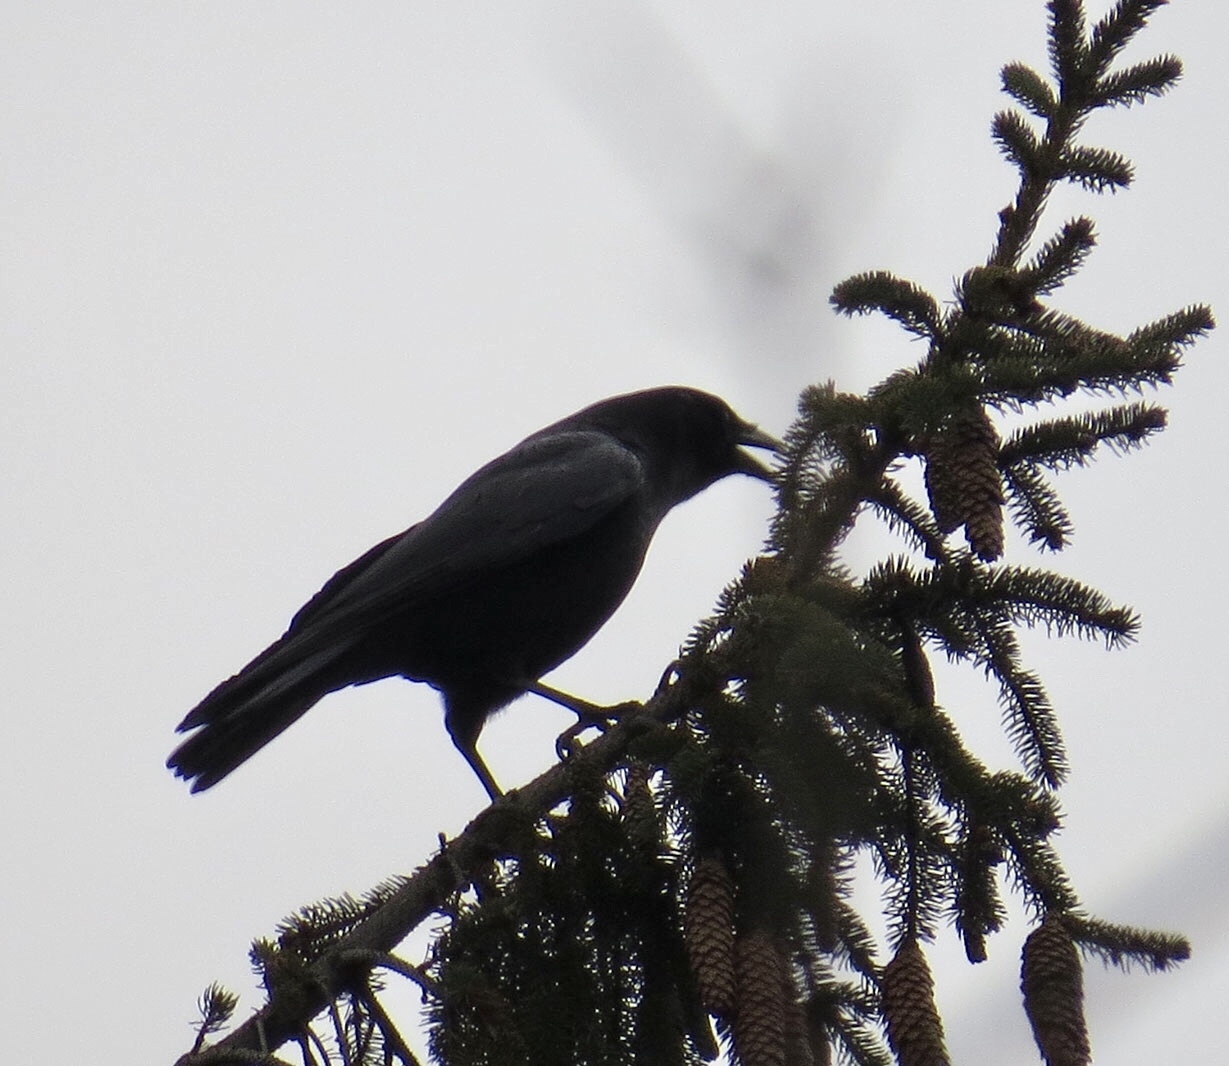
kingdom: Animalia
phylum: Chordata
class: Aves
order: Passeriformes
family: Corvidae
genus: Corvus
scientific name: Corvus brachyrhynchos
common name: American crow
